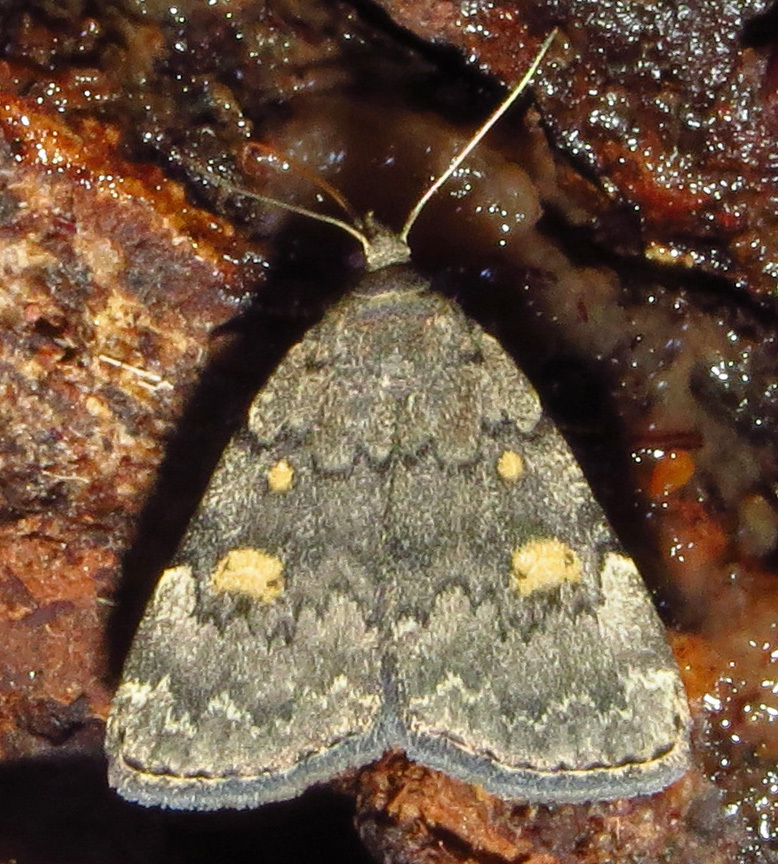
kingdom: Animalia
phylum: Arthropoda
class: Insecta
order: Lepidoptera
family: Erebidae
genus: Idia
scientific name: Idia aemula
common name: Common idia moth
